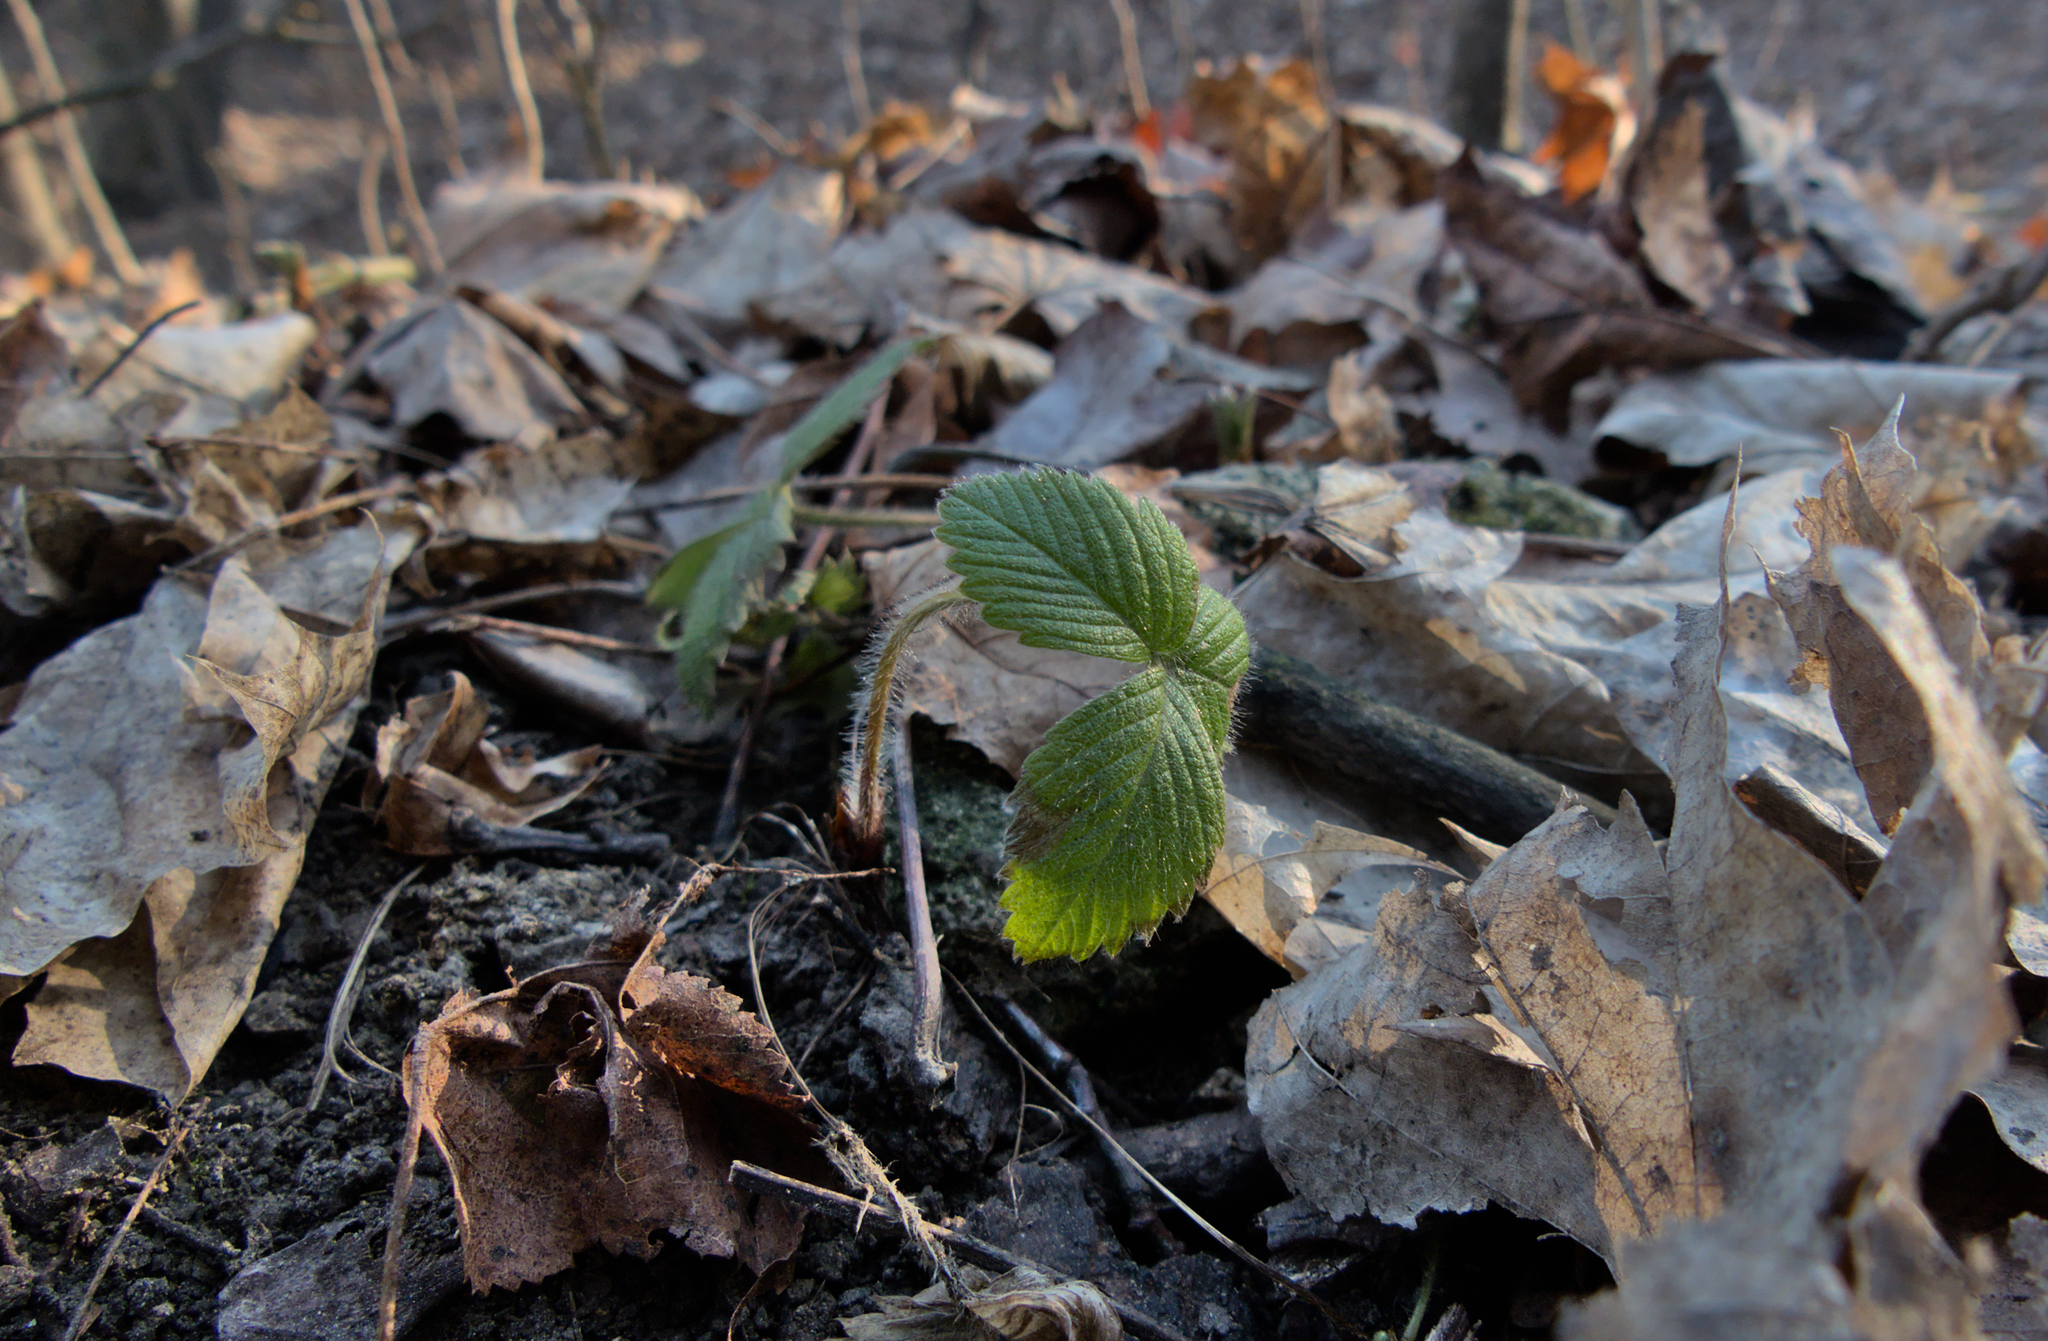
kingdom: Plantae
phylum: Tracheophyta
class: Magnoliopsida
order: Rosales
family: Rosaceae
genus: Fragaria
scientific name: Fragaria vesca
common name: Wild strawberry
